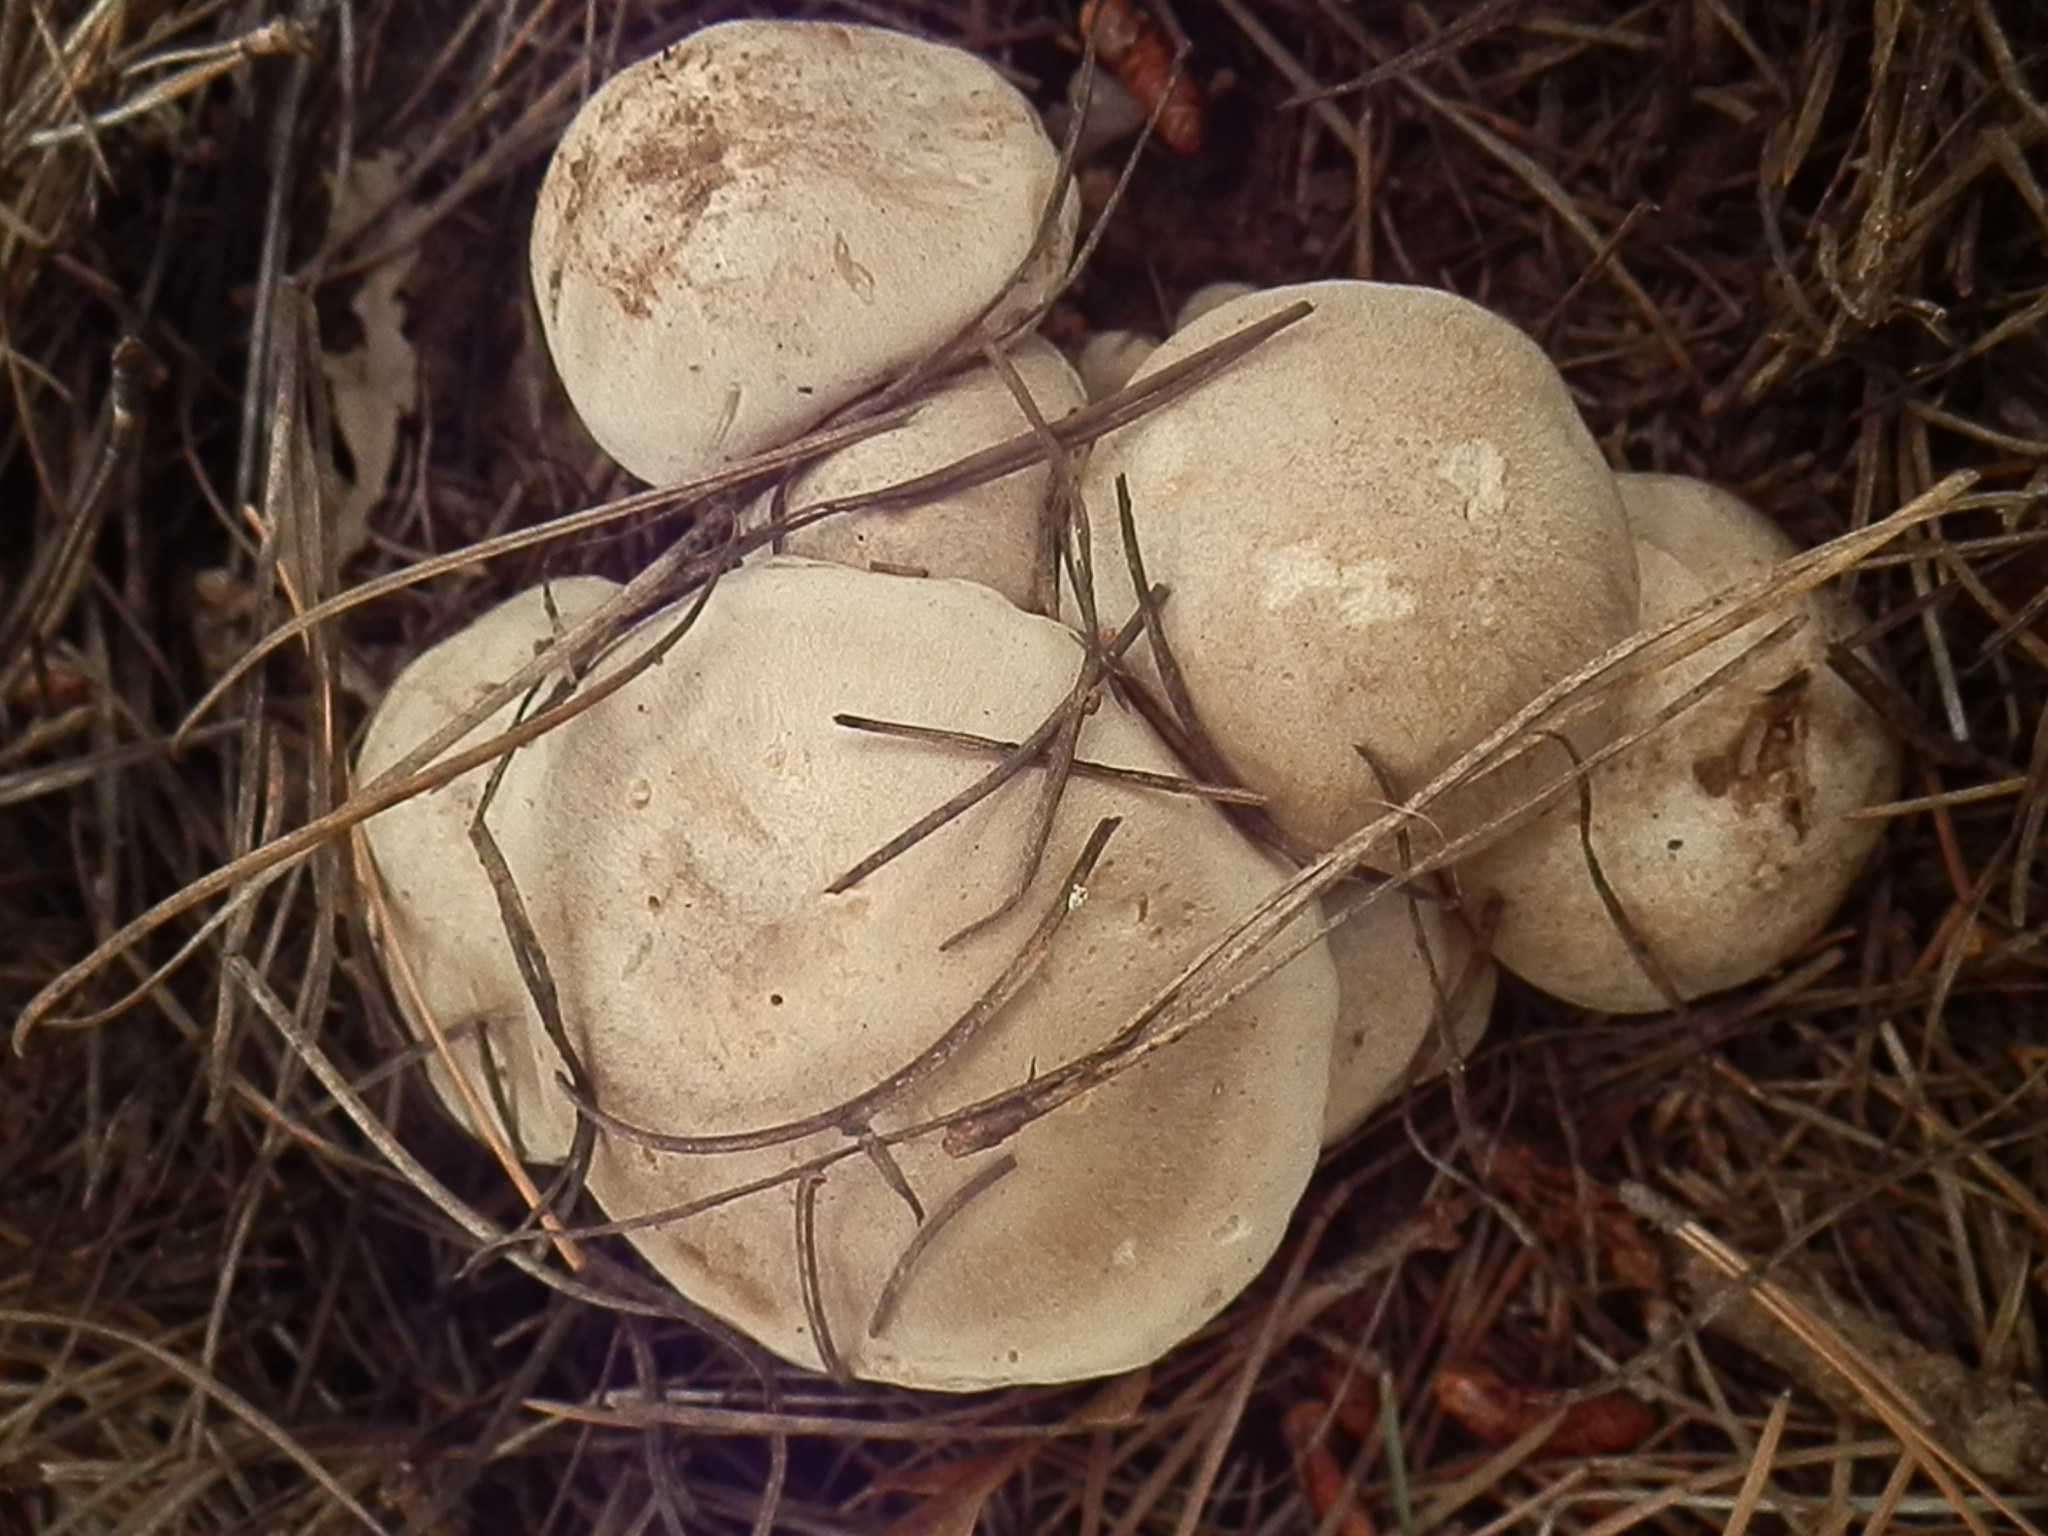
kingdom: Fungi
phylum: Basidiomycota
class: Agaricomycetes
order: Agaricales
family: Lyophyllaceae
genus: Lyophyllum
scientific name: Lyophyllum shimeji
